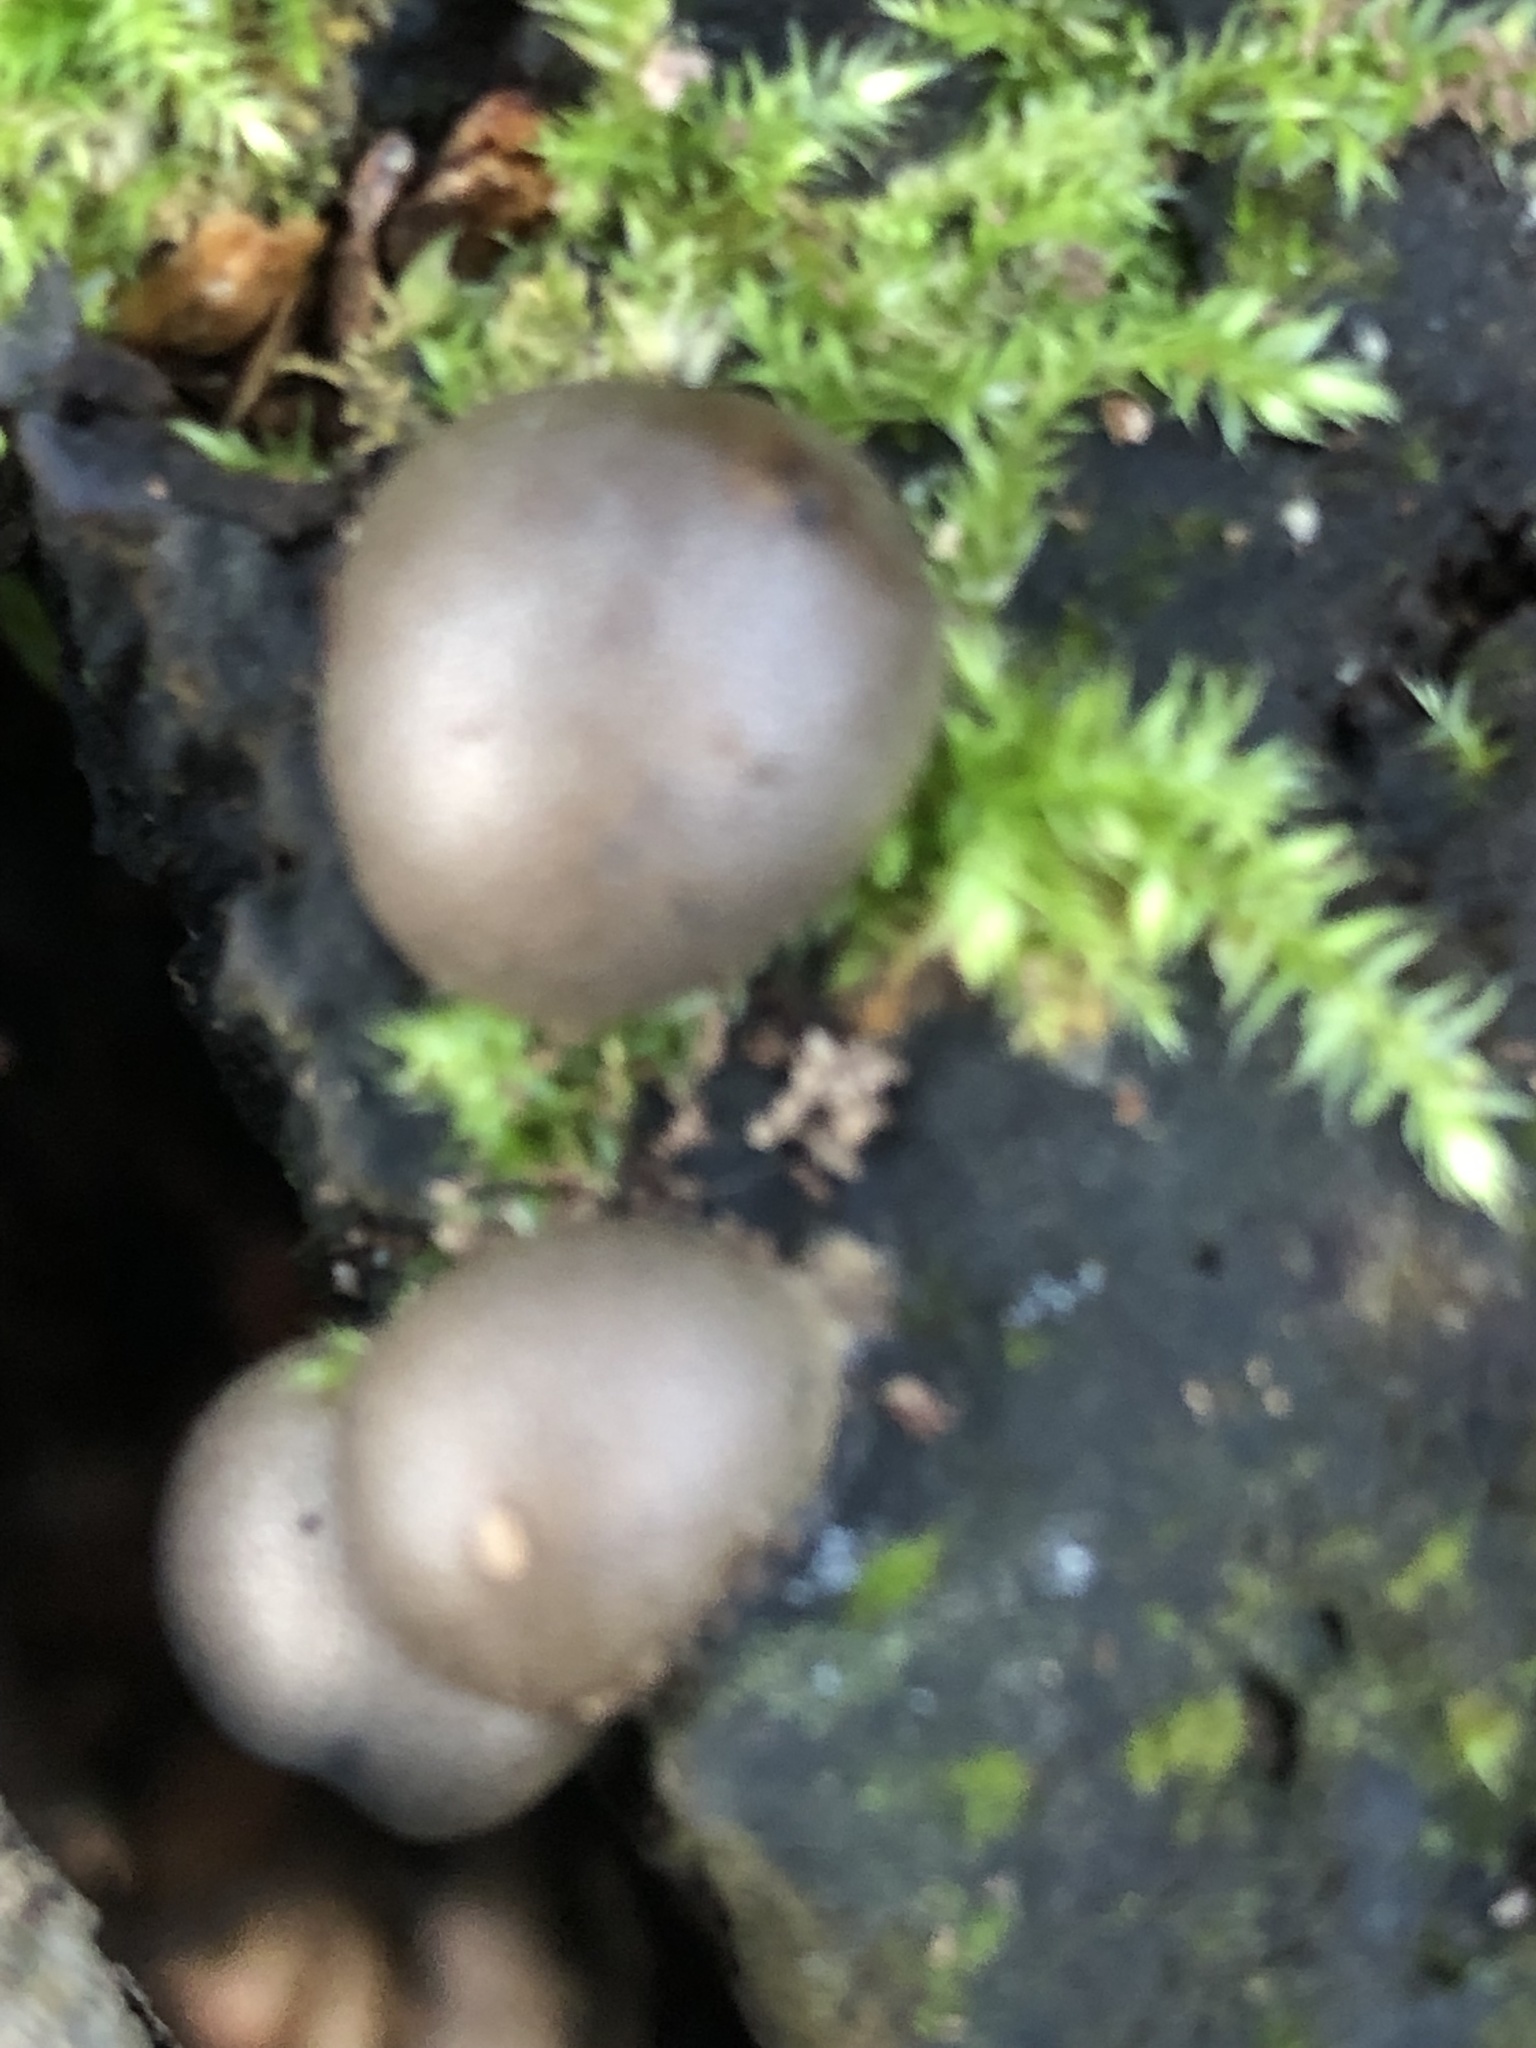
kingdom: Protozoa
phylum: Mycetozoa
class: Myxomycetes
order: Cribrariales
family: Tubiferaceae
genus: Lycogala
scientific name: Lycogala epidendrum
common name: Wolf's milk
